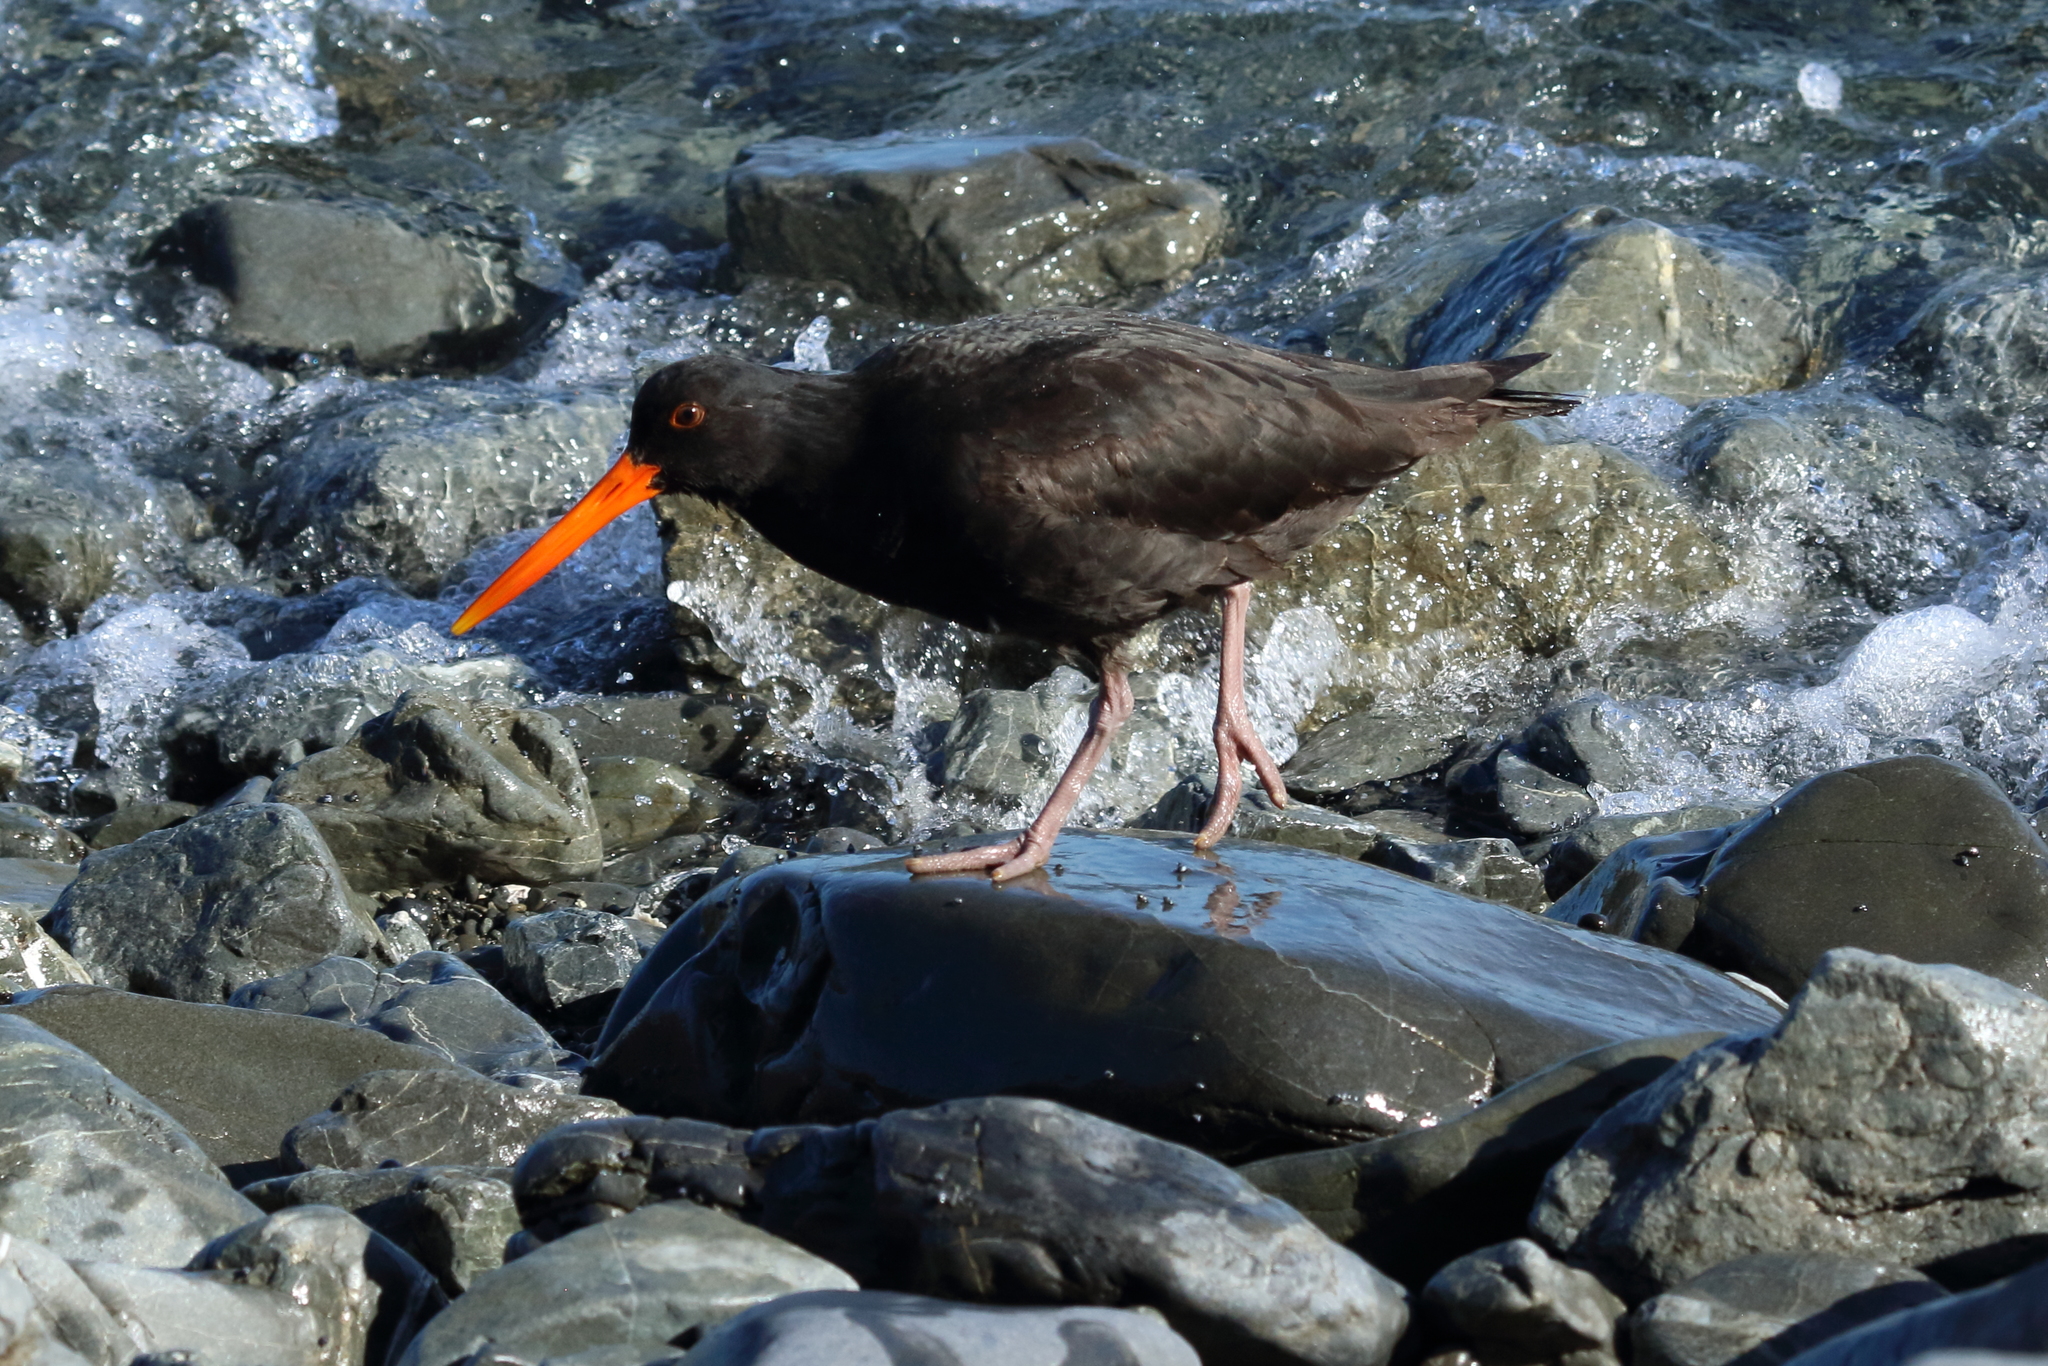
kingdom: Animalia
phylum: Chordata
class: Aves
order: Charadriiformes
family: Haematopodidae
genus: Haematopus
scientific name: Haematopus unicolor
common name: Variable oystercatcher
